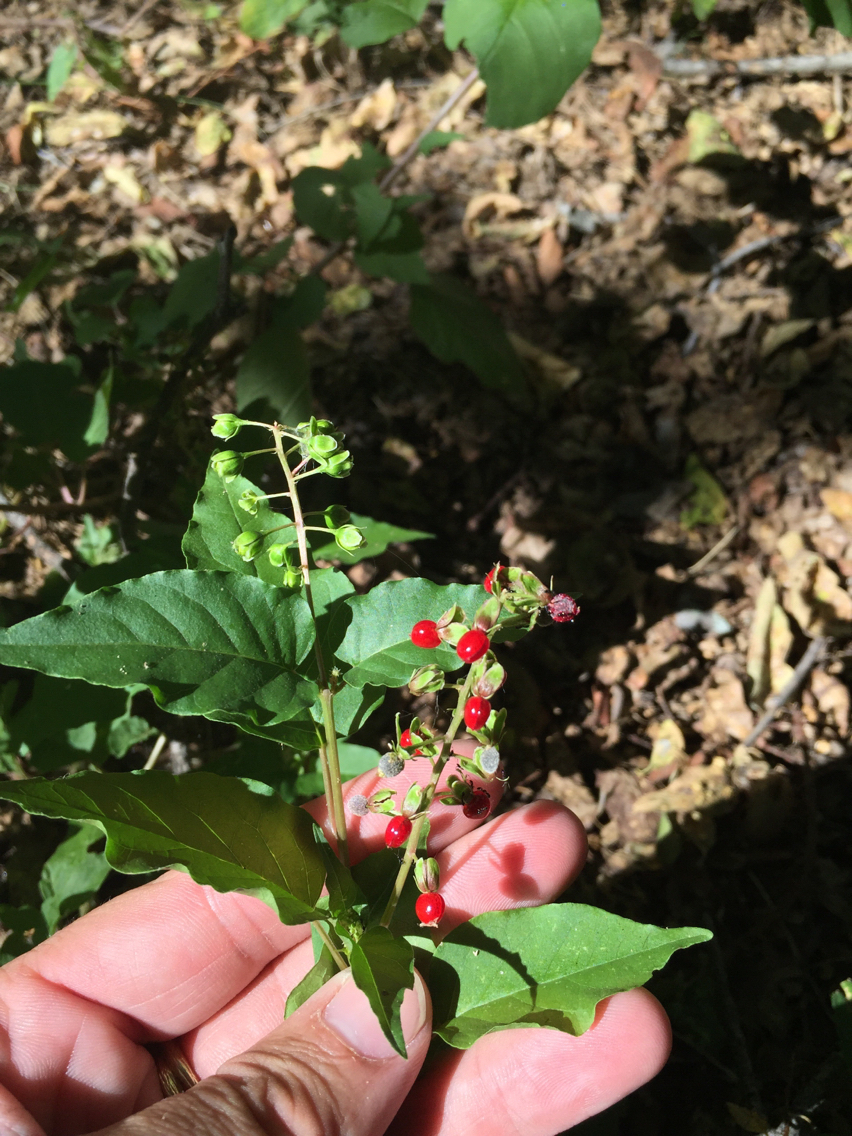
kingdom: Plantae
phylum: Tracheophyta
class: Magnoliopsida
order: Caryophyllales
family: Phytolaccaceae
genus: Rivina
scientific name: Rivina humilis
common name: Rougeplant
